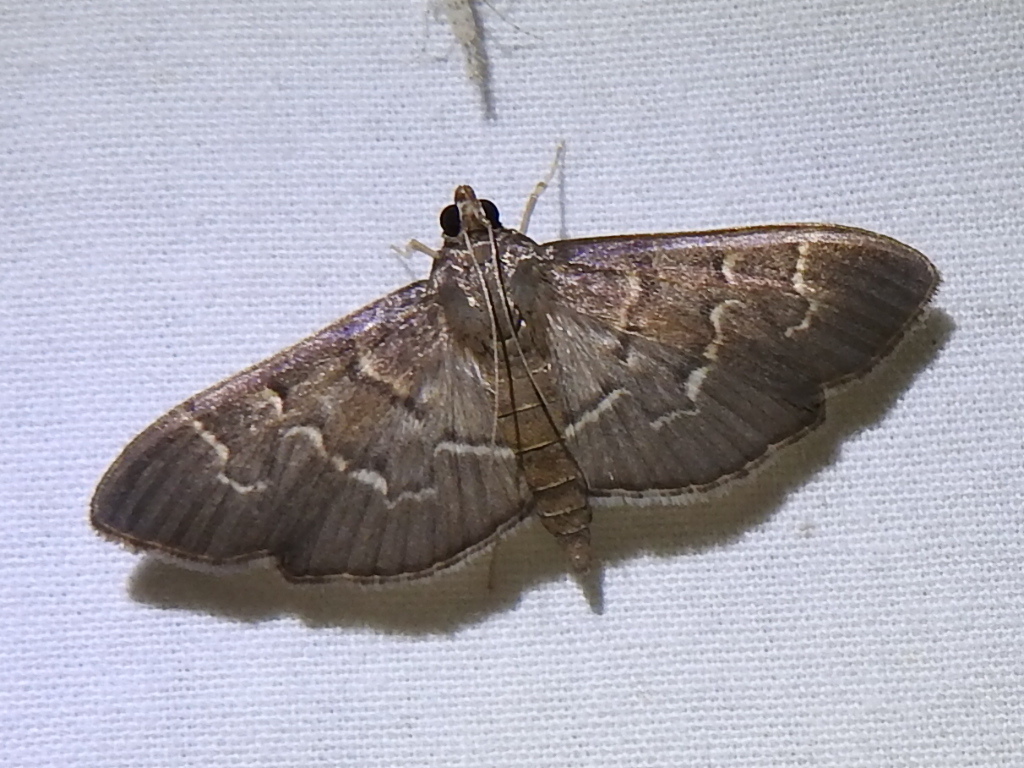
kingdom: Animalia
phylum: Arthropoda
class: Insecta
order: Lepidoptera
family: Crambidae
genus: Pilocrocis
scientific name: Pilocrocis ramentalis
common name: Scraped pilocrocis
